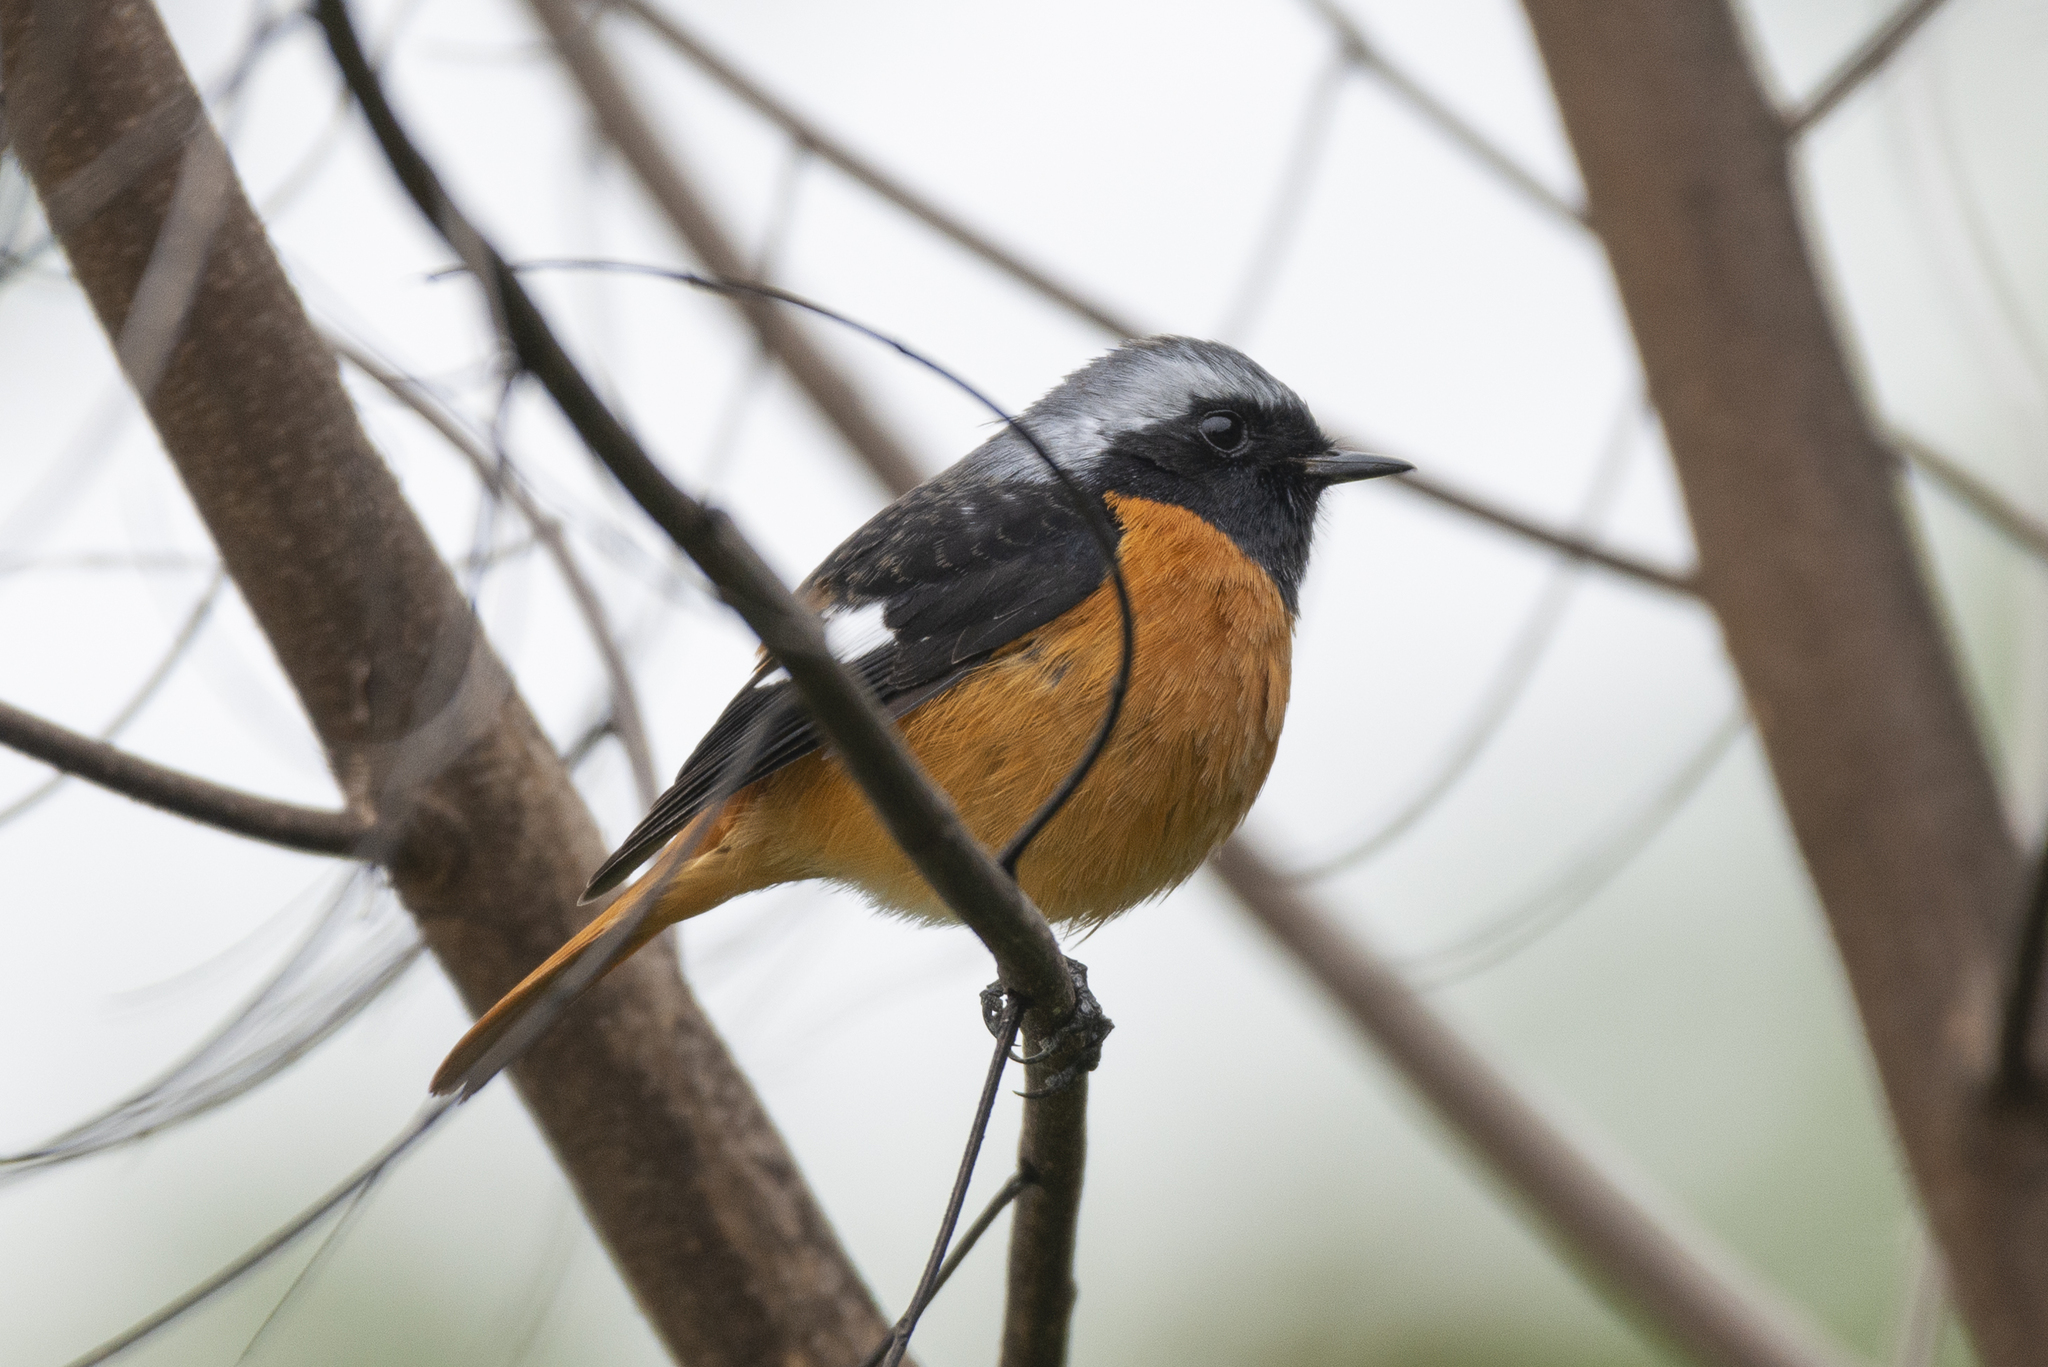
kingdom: Animalia
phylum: Chordata
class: Aves
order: Passeriformes
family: Muscicapidae
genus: Phoenicurus
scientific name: Phoenicurus auroreus
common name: Daurian redstart
